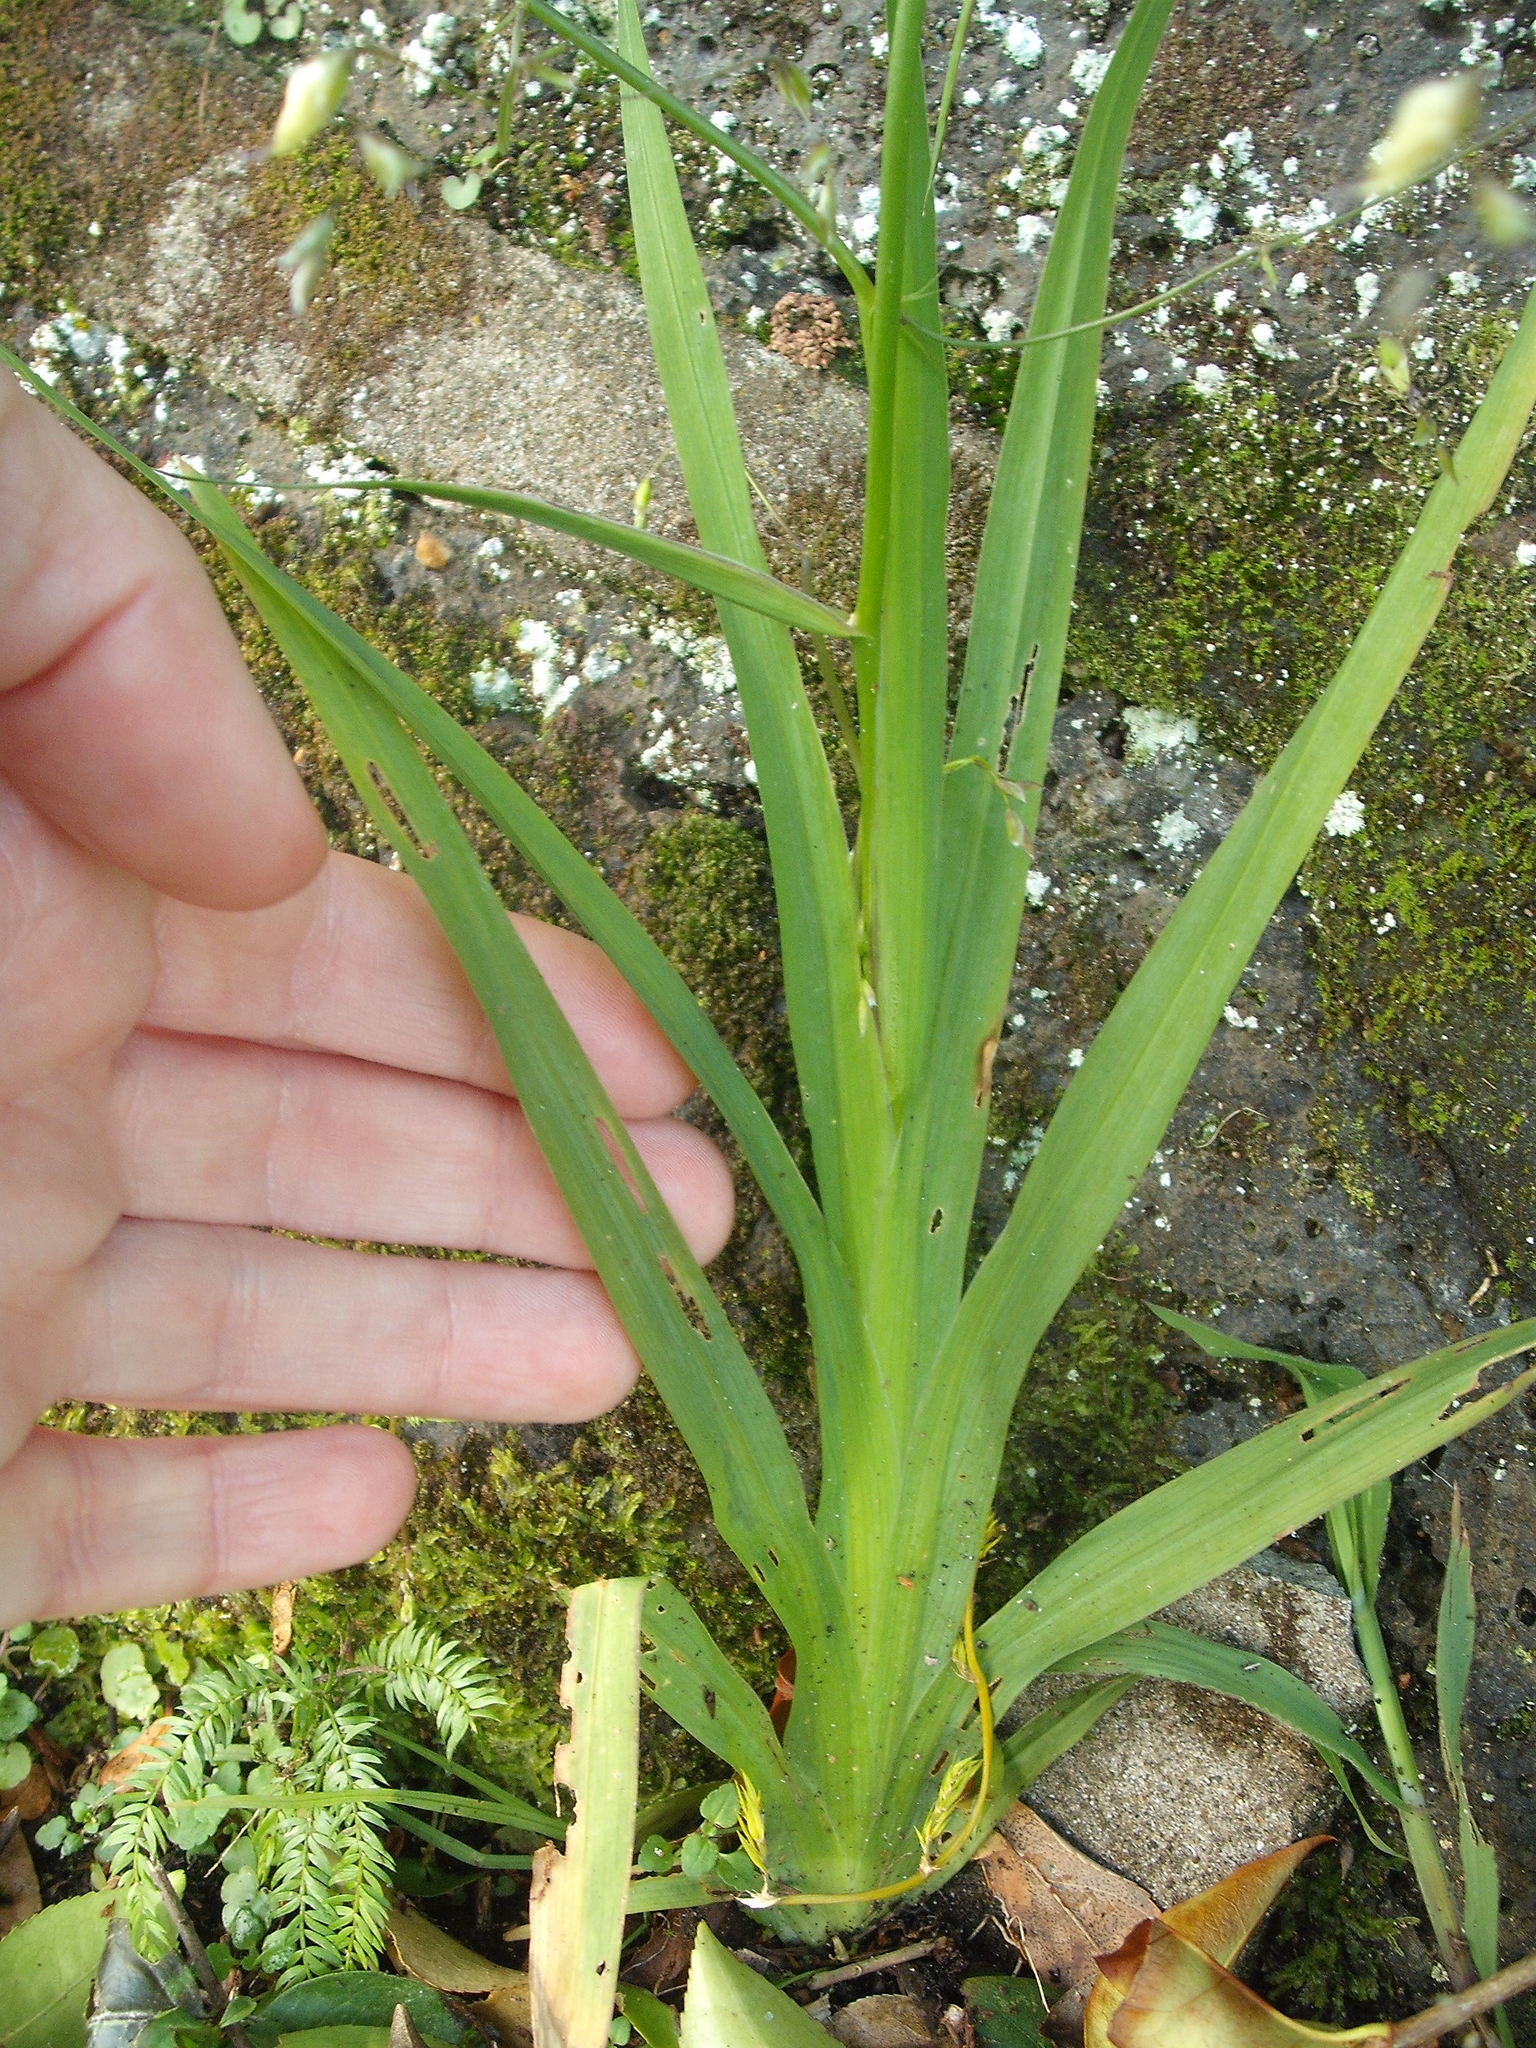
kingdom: Plantae
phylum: Tracheophyta
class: Liliopsida
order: Asparagales
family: Iridaceae
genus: Melasphaerula
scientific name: Melasphaerula graminea
